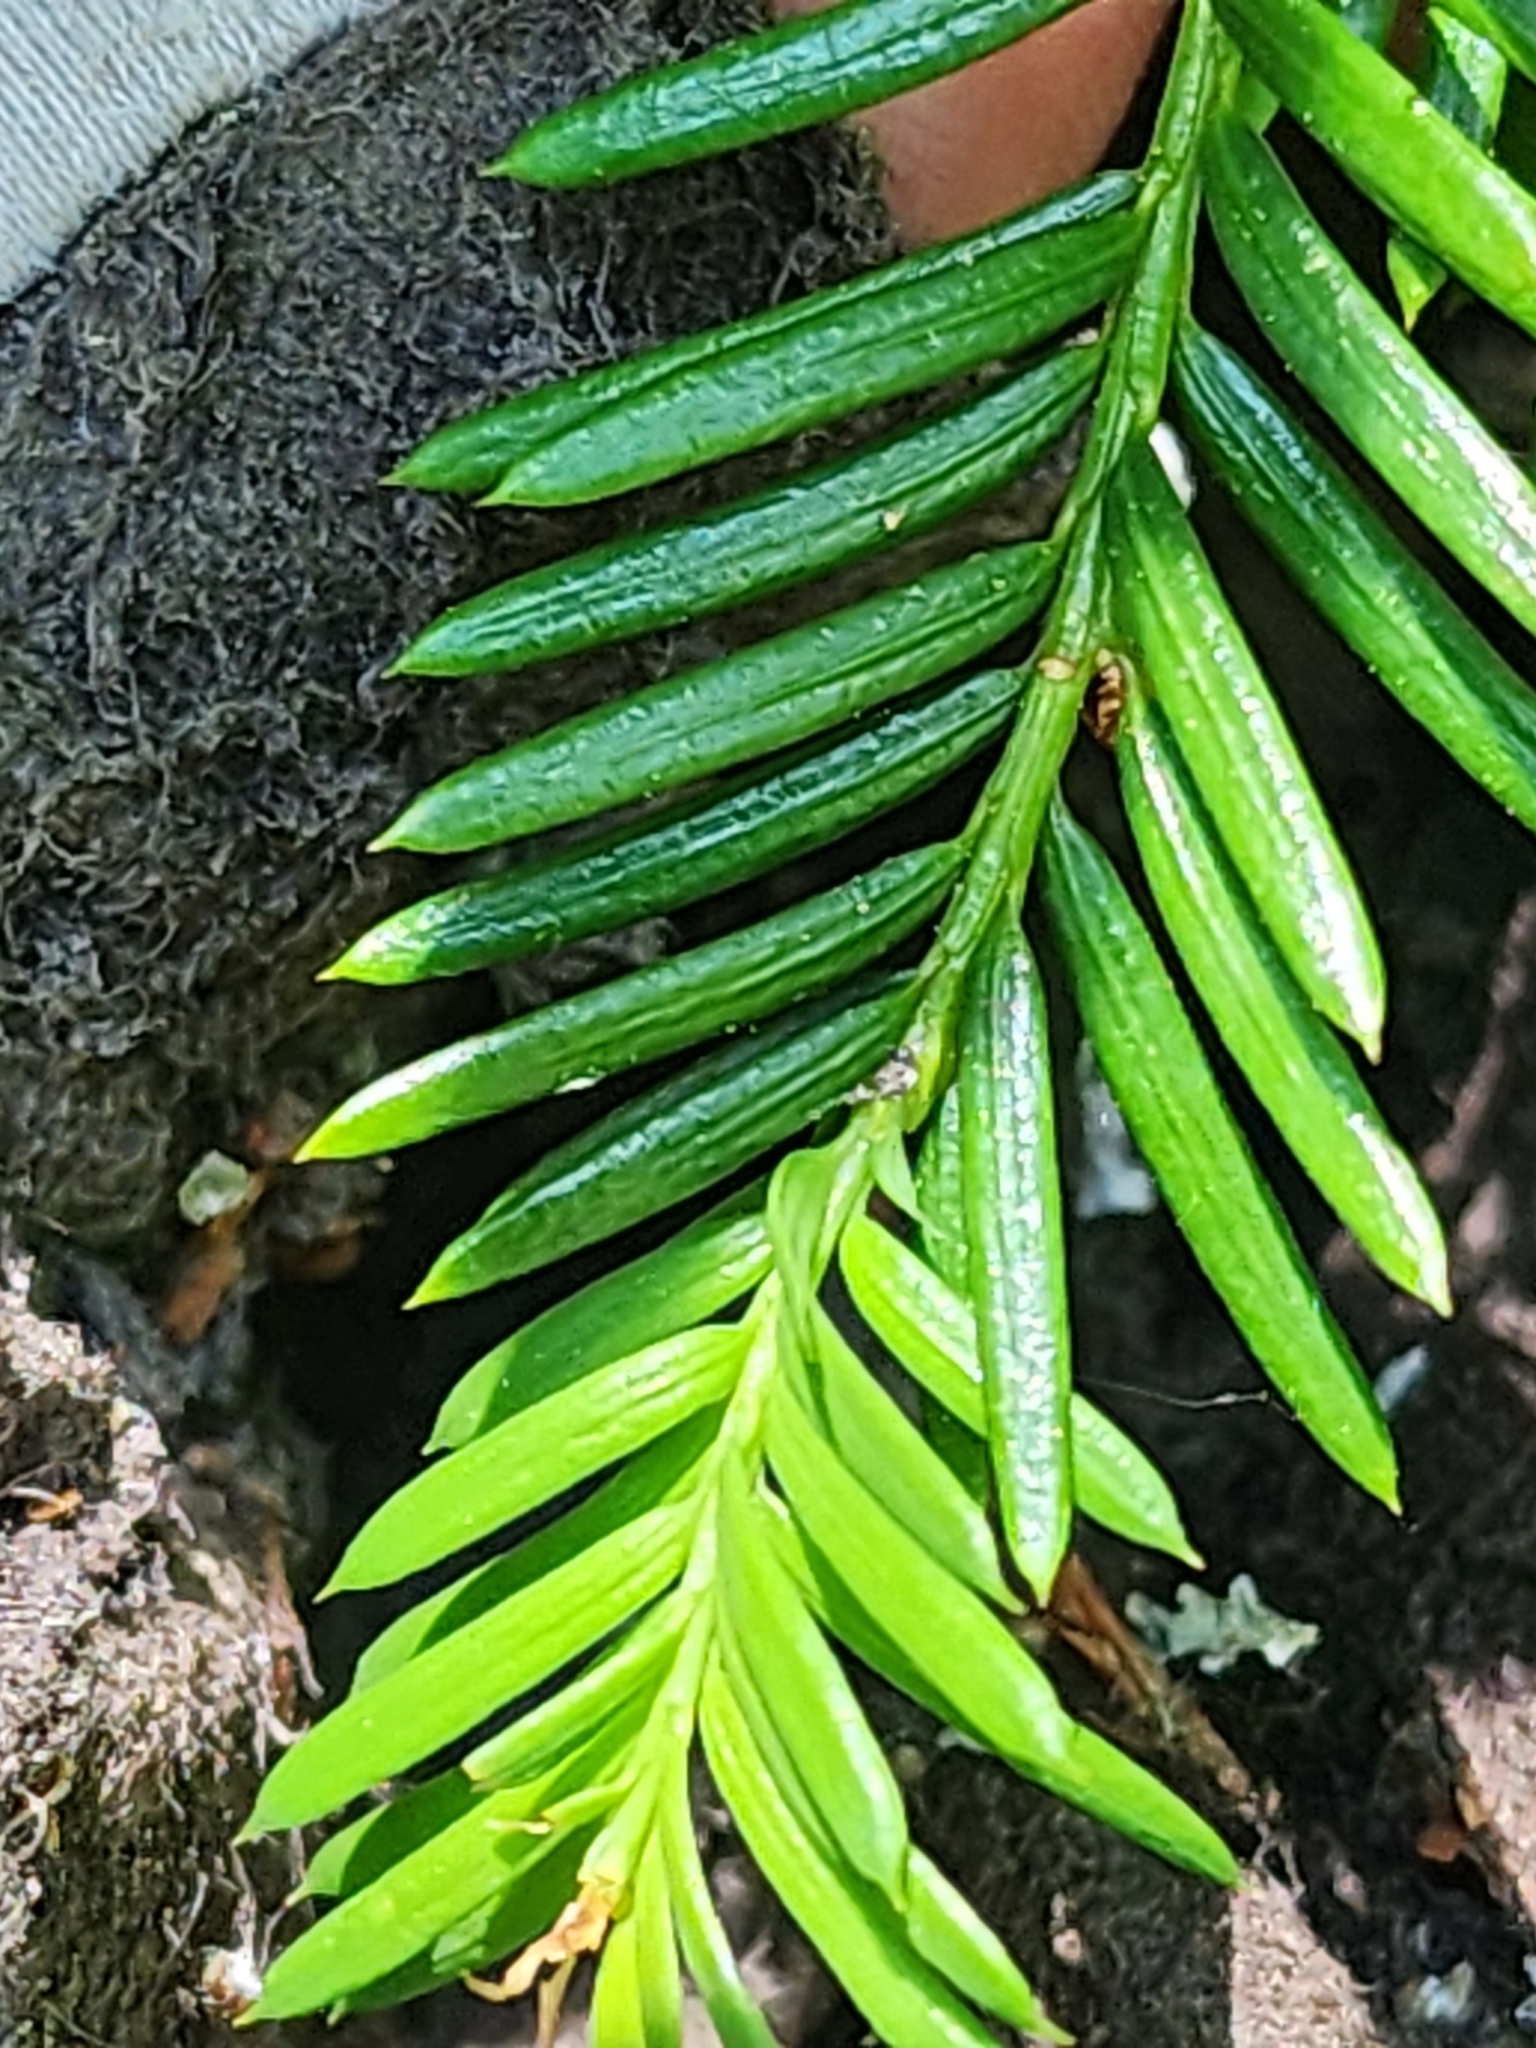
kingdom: Plantae
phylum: Tracheophyta
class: Pinopsida
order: Pinales
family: Taxaceae
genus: Taxus
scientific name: Taxus canadensis
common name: American yew
